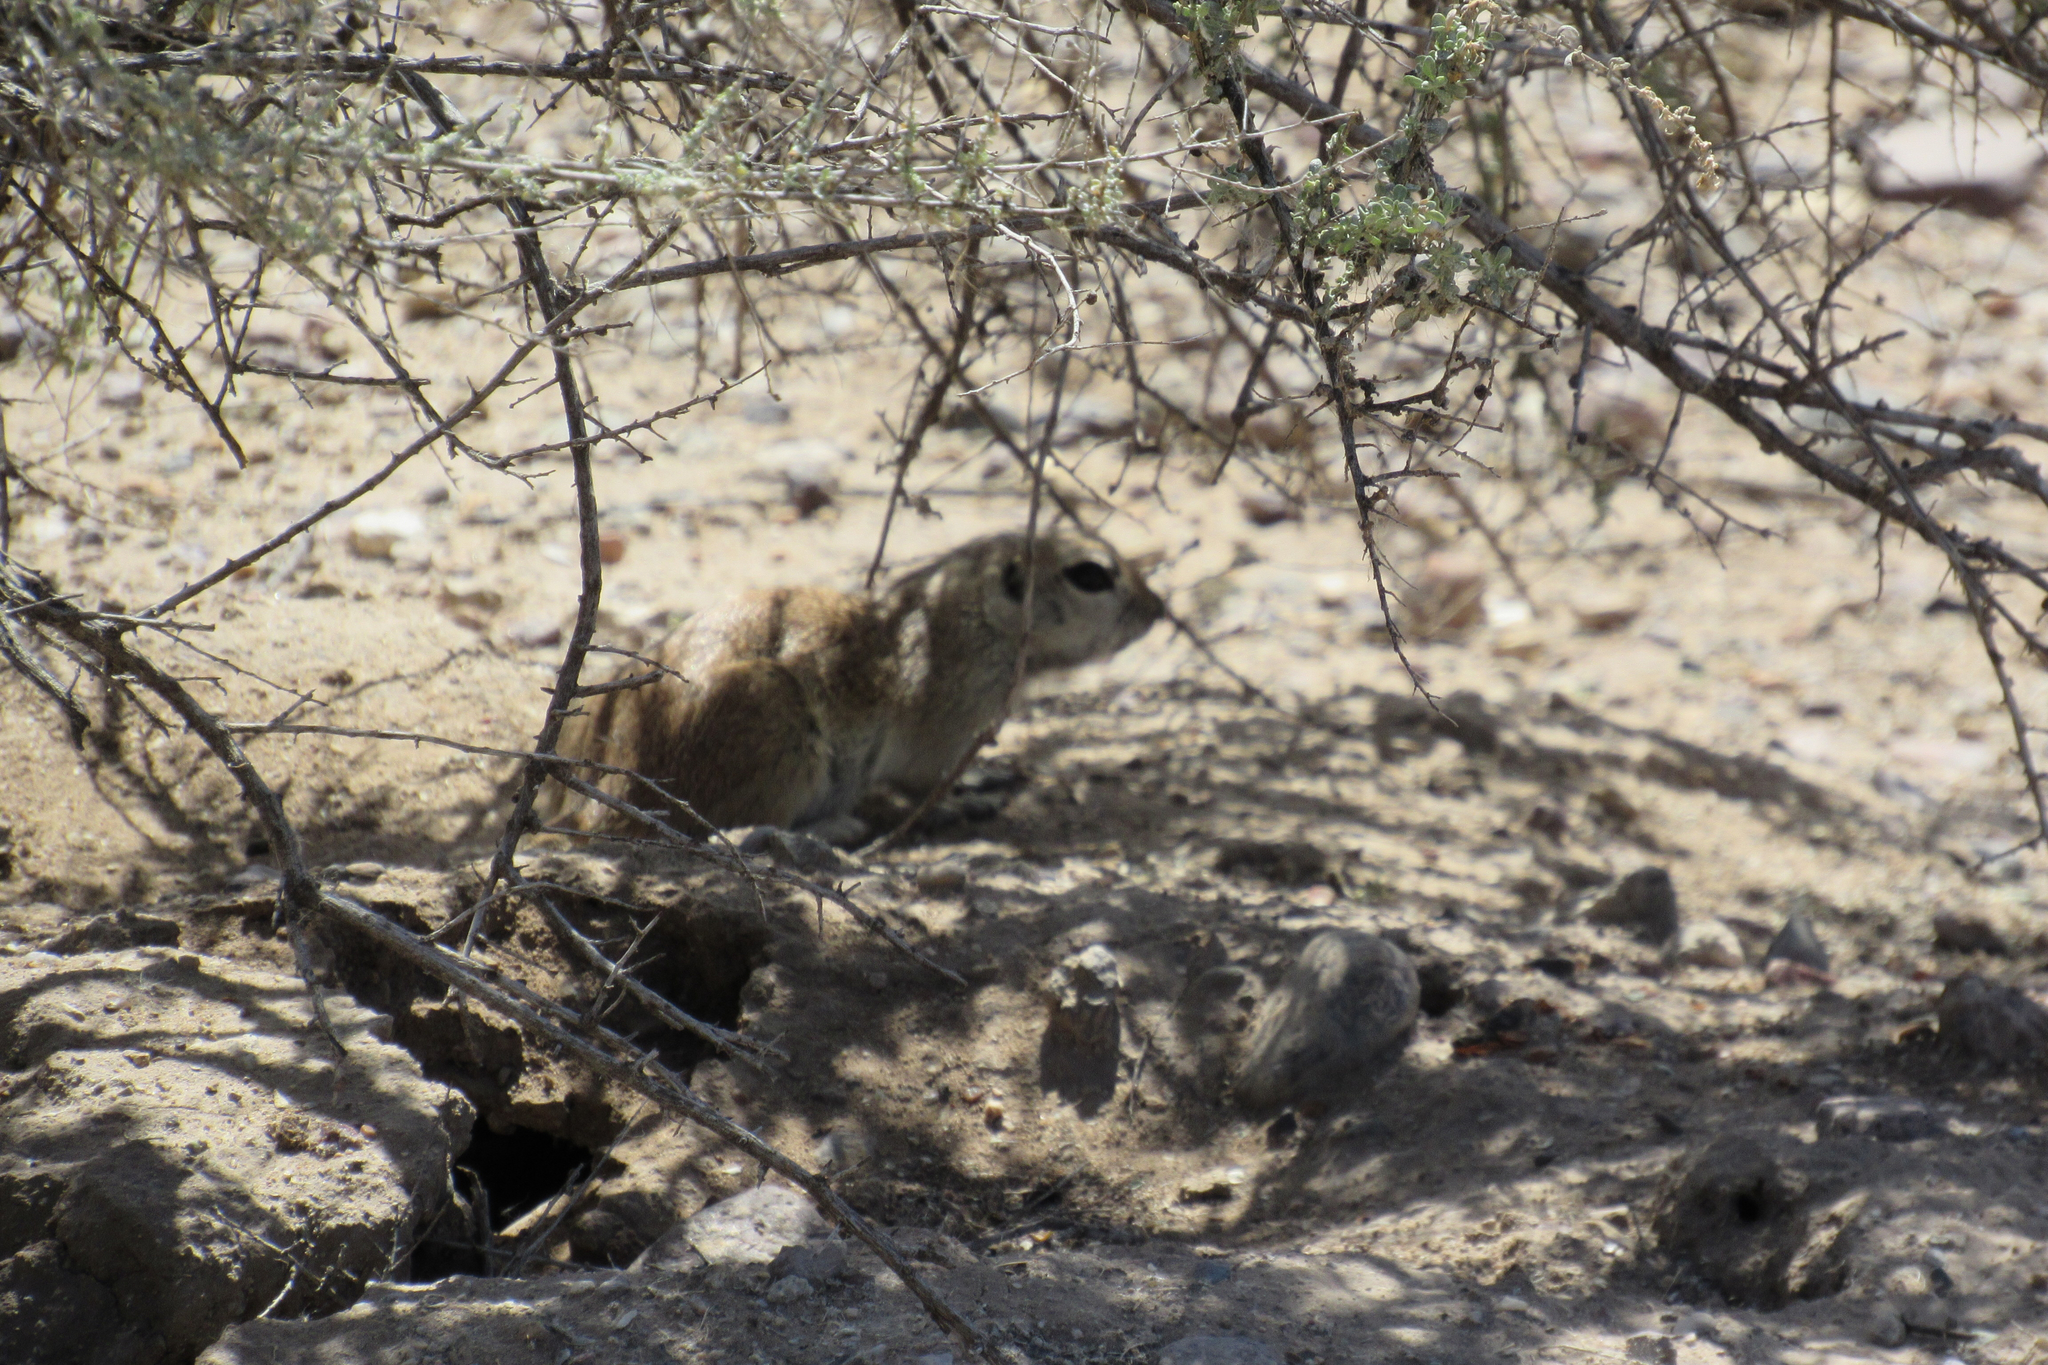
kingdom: Animalia
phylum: Chordata
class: Mammalia
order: Rodentia
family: Sciuridae
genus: Xerospermophilus
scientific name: Xerospermophilus tereticaudus
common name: Round-tailed ground squirrel
